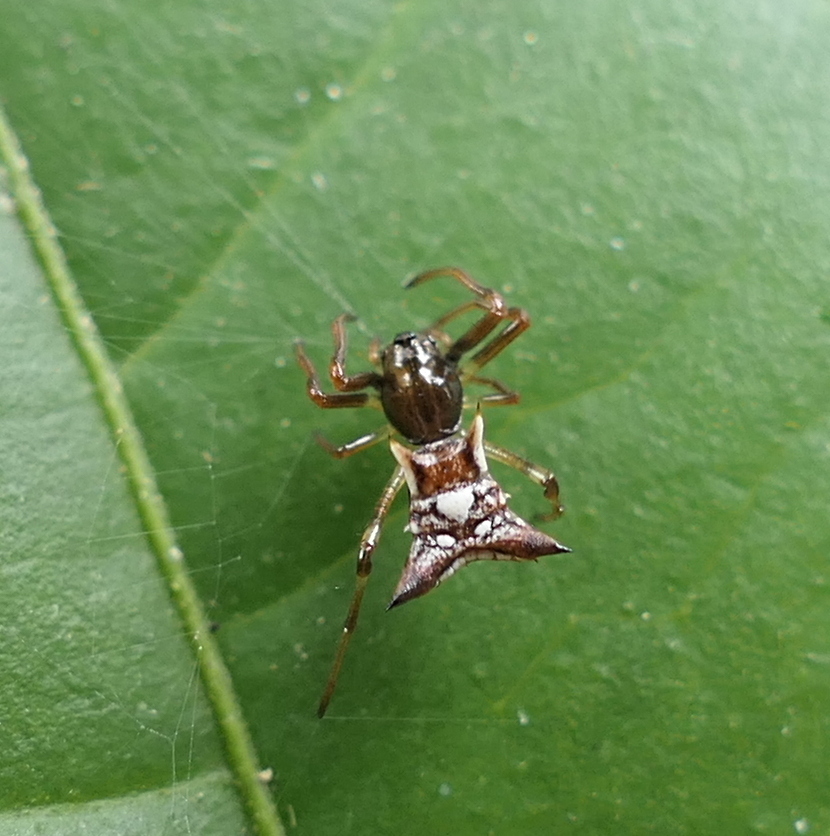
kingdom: Animalia
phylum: Arthropoda
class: Arachnida
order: Araneae
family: Araneidae
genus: Micrathena
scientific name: Micrathena evansi
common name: Orb weavers
